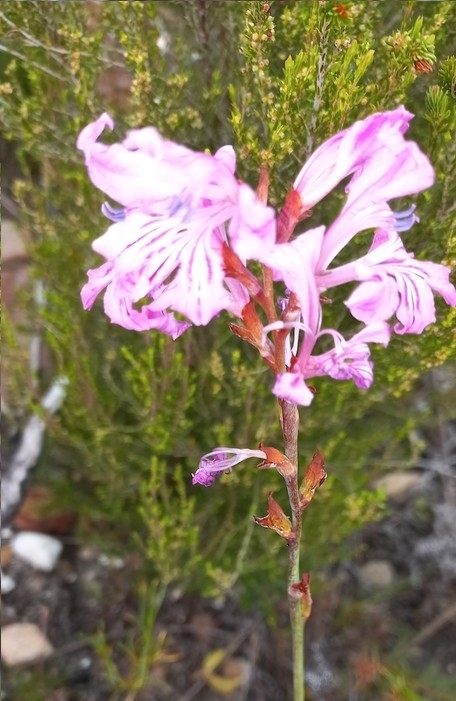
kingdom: Plantae
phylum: Tracheophyta
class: Liliopsida
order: Asparagales
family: Iridaceae
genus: Tritoniopsis
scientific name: Tritoniopsis lata
